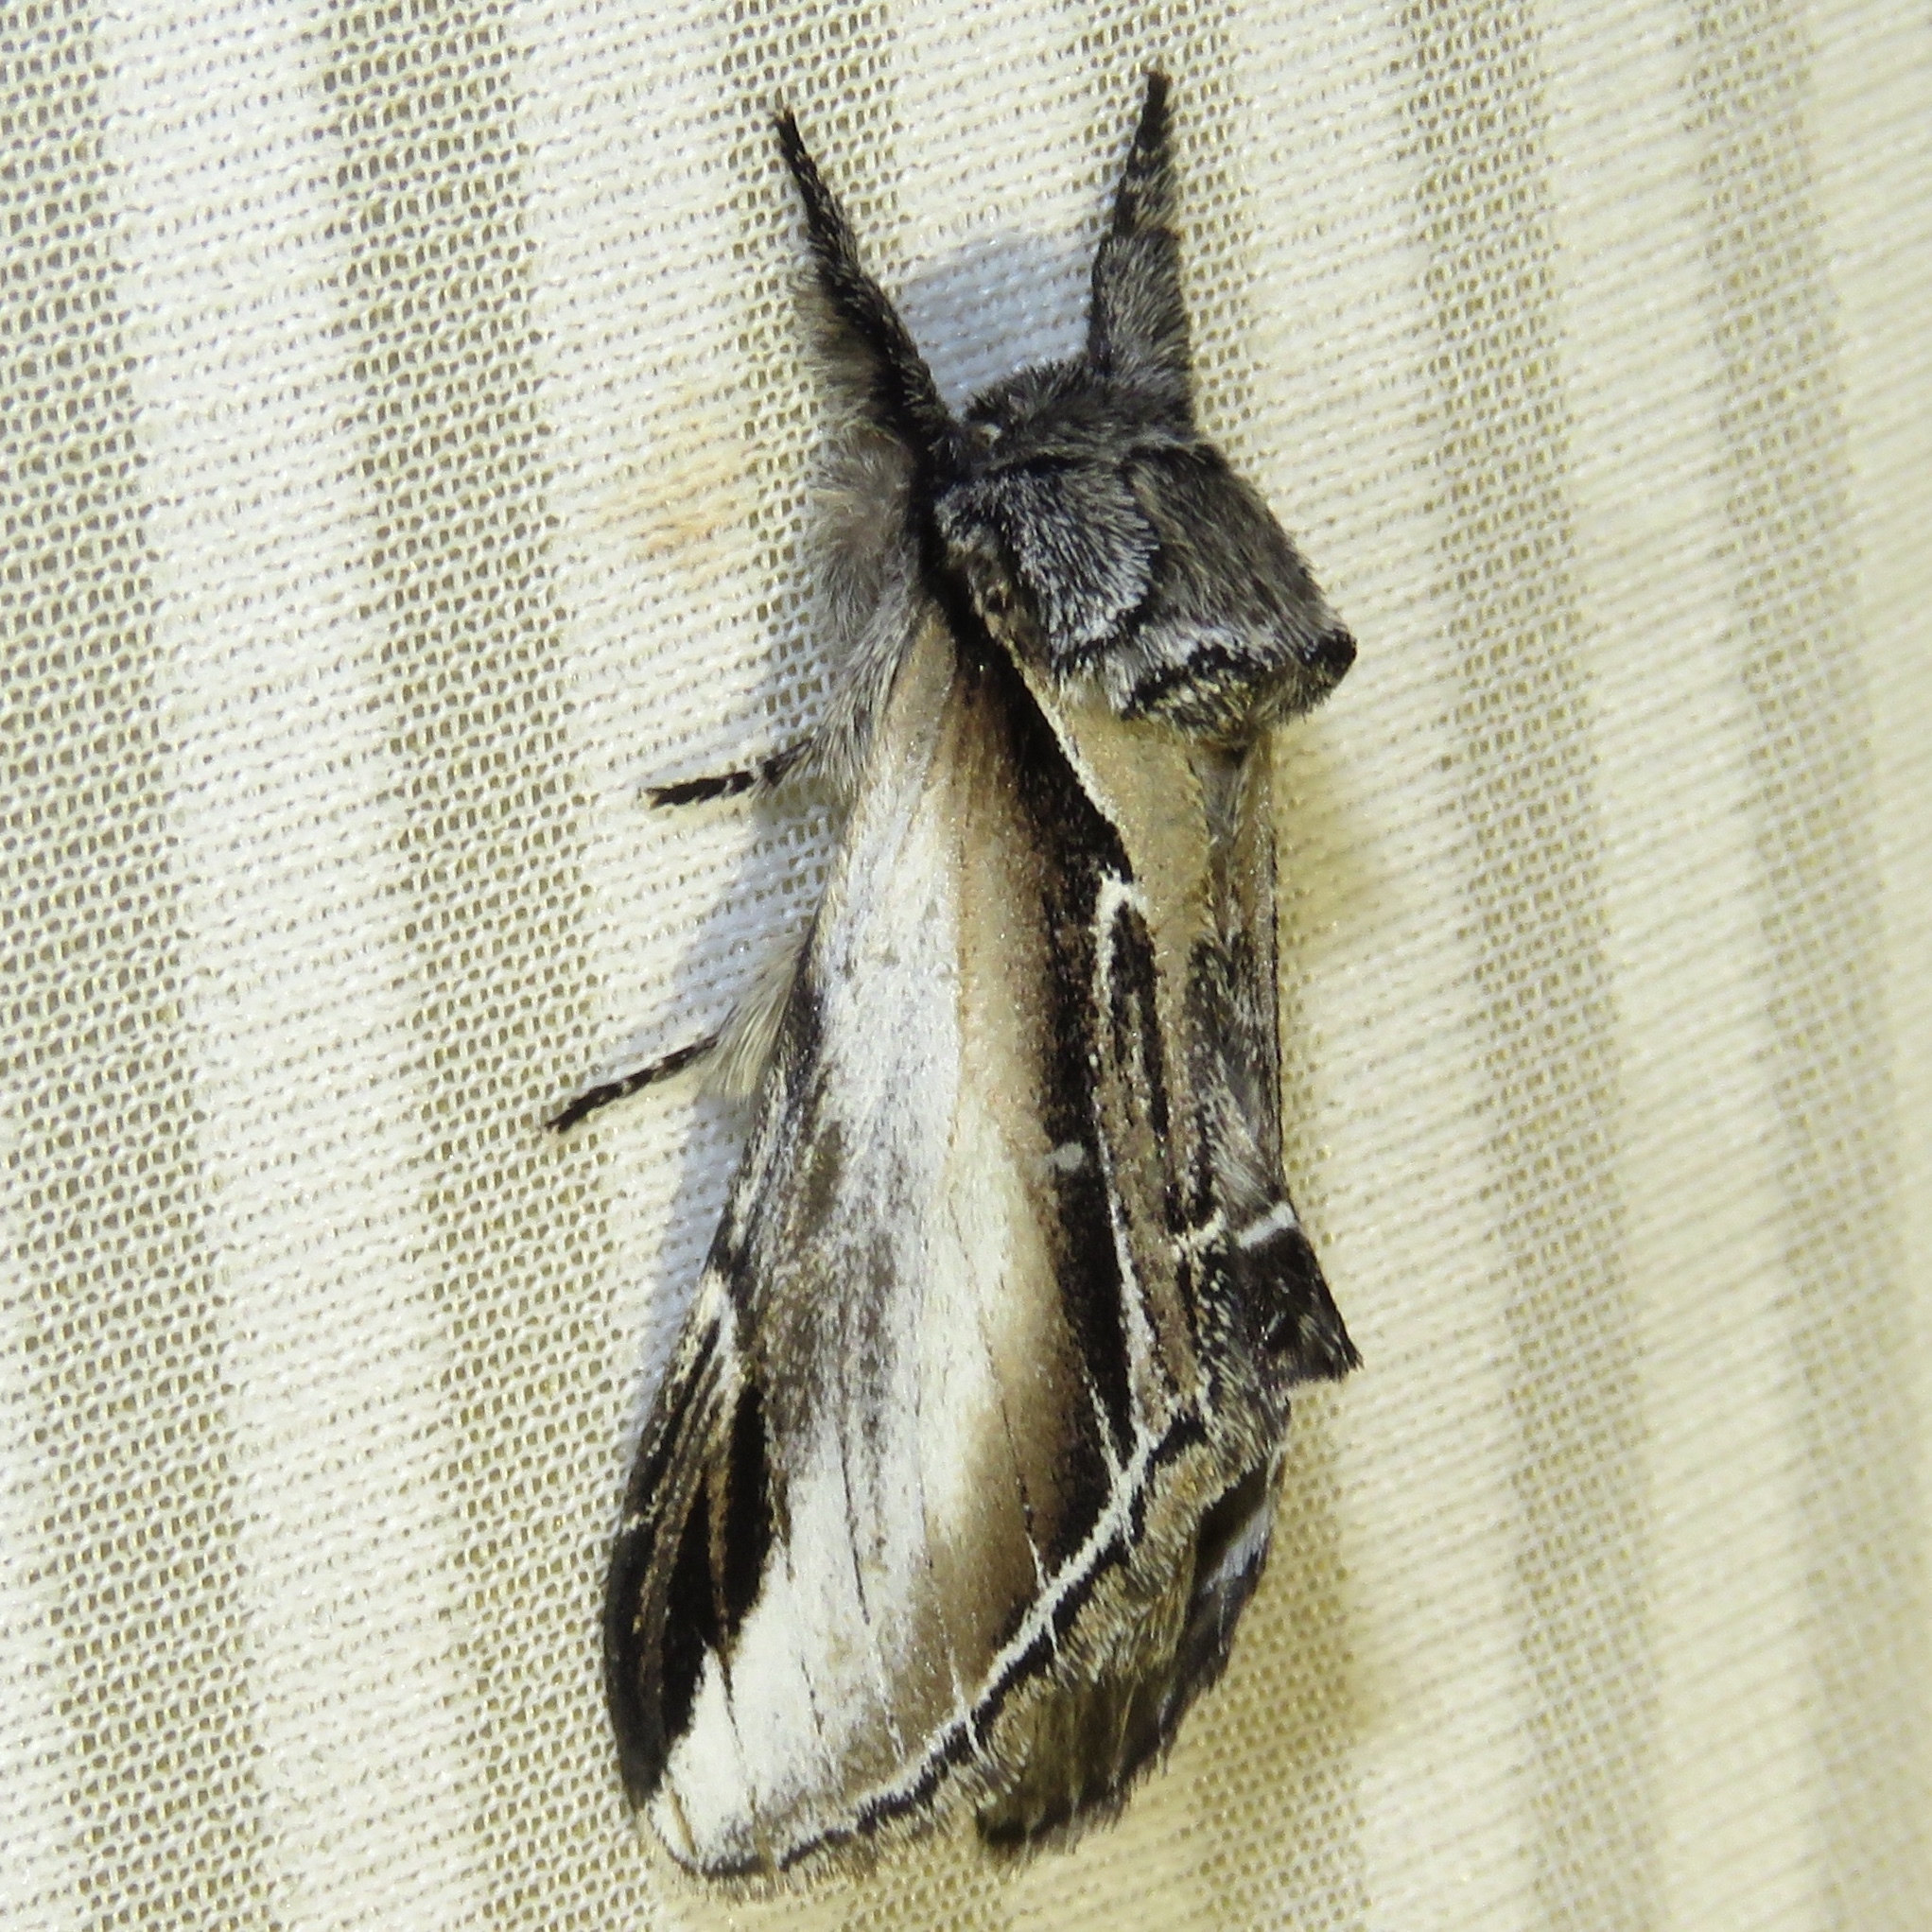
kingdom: Animalia
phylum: Arthropoda
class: Insecta
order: Lepidoptera
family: Notodontidae
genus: Pheosia
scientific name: Pheosia rimosa
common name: Black-rimmed prominent
